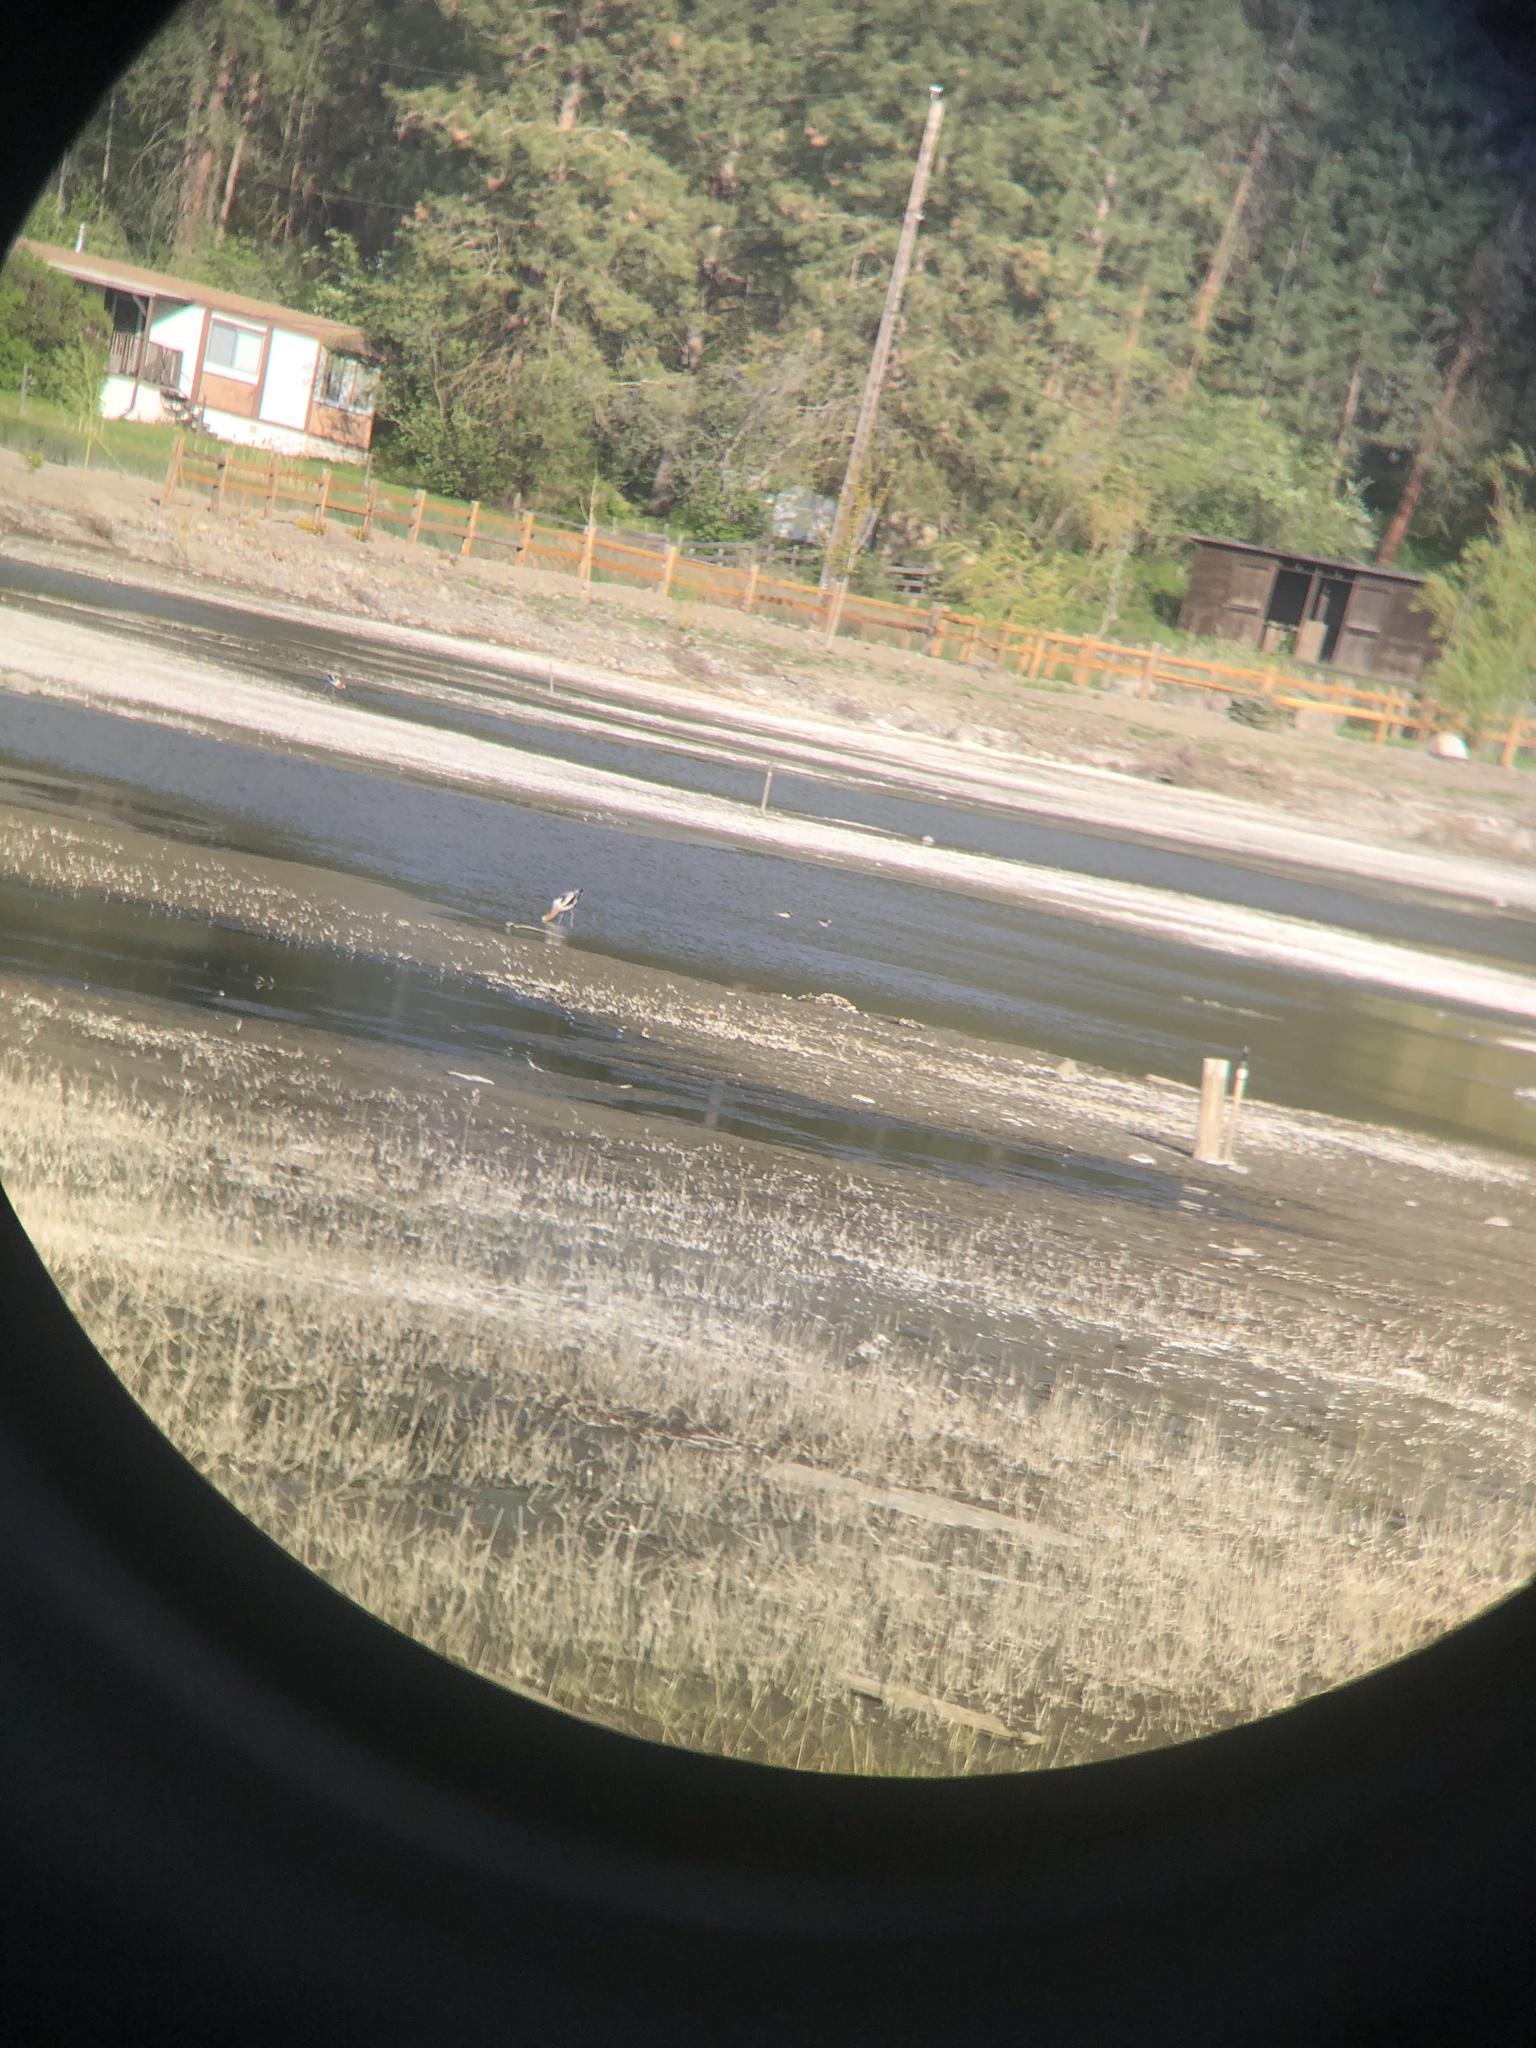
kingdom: Animalia
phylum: Chordata
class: Aves
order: Charadriiformes
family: Scolopacidae
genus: Phalaropus
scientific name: Phalaropus tricolor
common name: Wilson's phalarope
